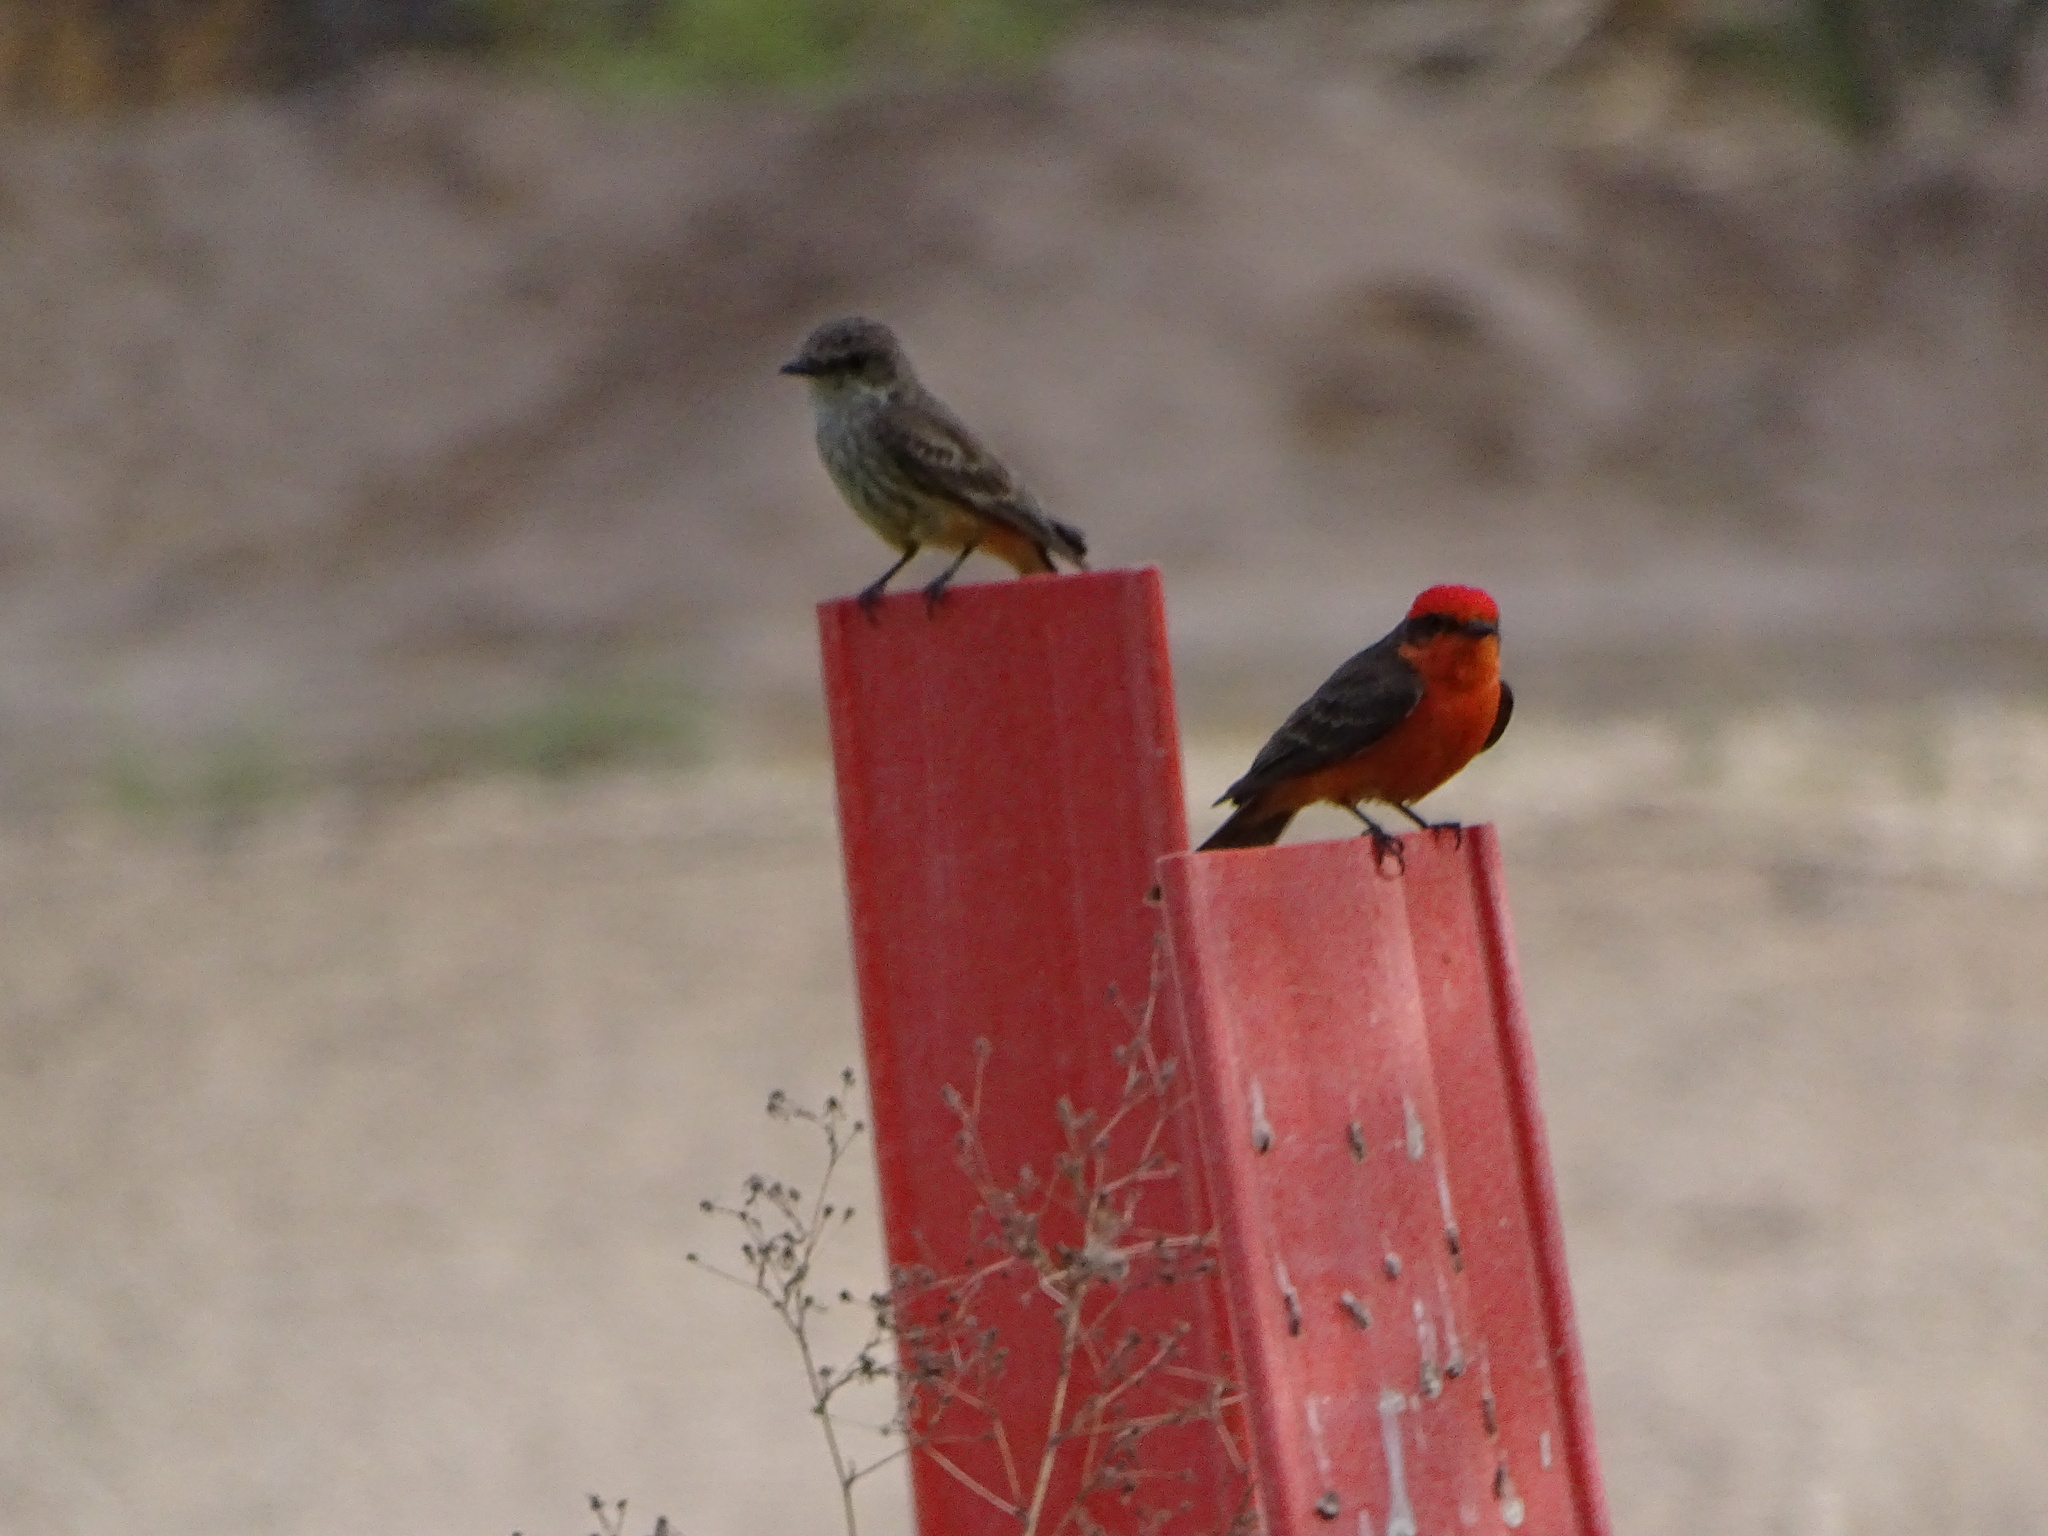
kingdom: Animalia
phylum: Chordata
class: Aves
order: Passeriformes
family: Tyrannidae
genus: Pyrocephalus
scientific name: Pyrocephalus rubinus
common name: Vermilion flycatcher
